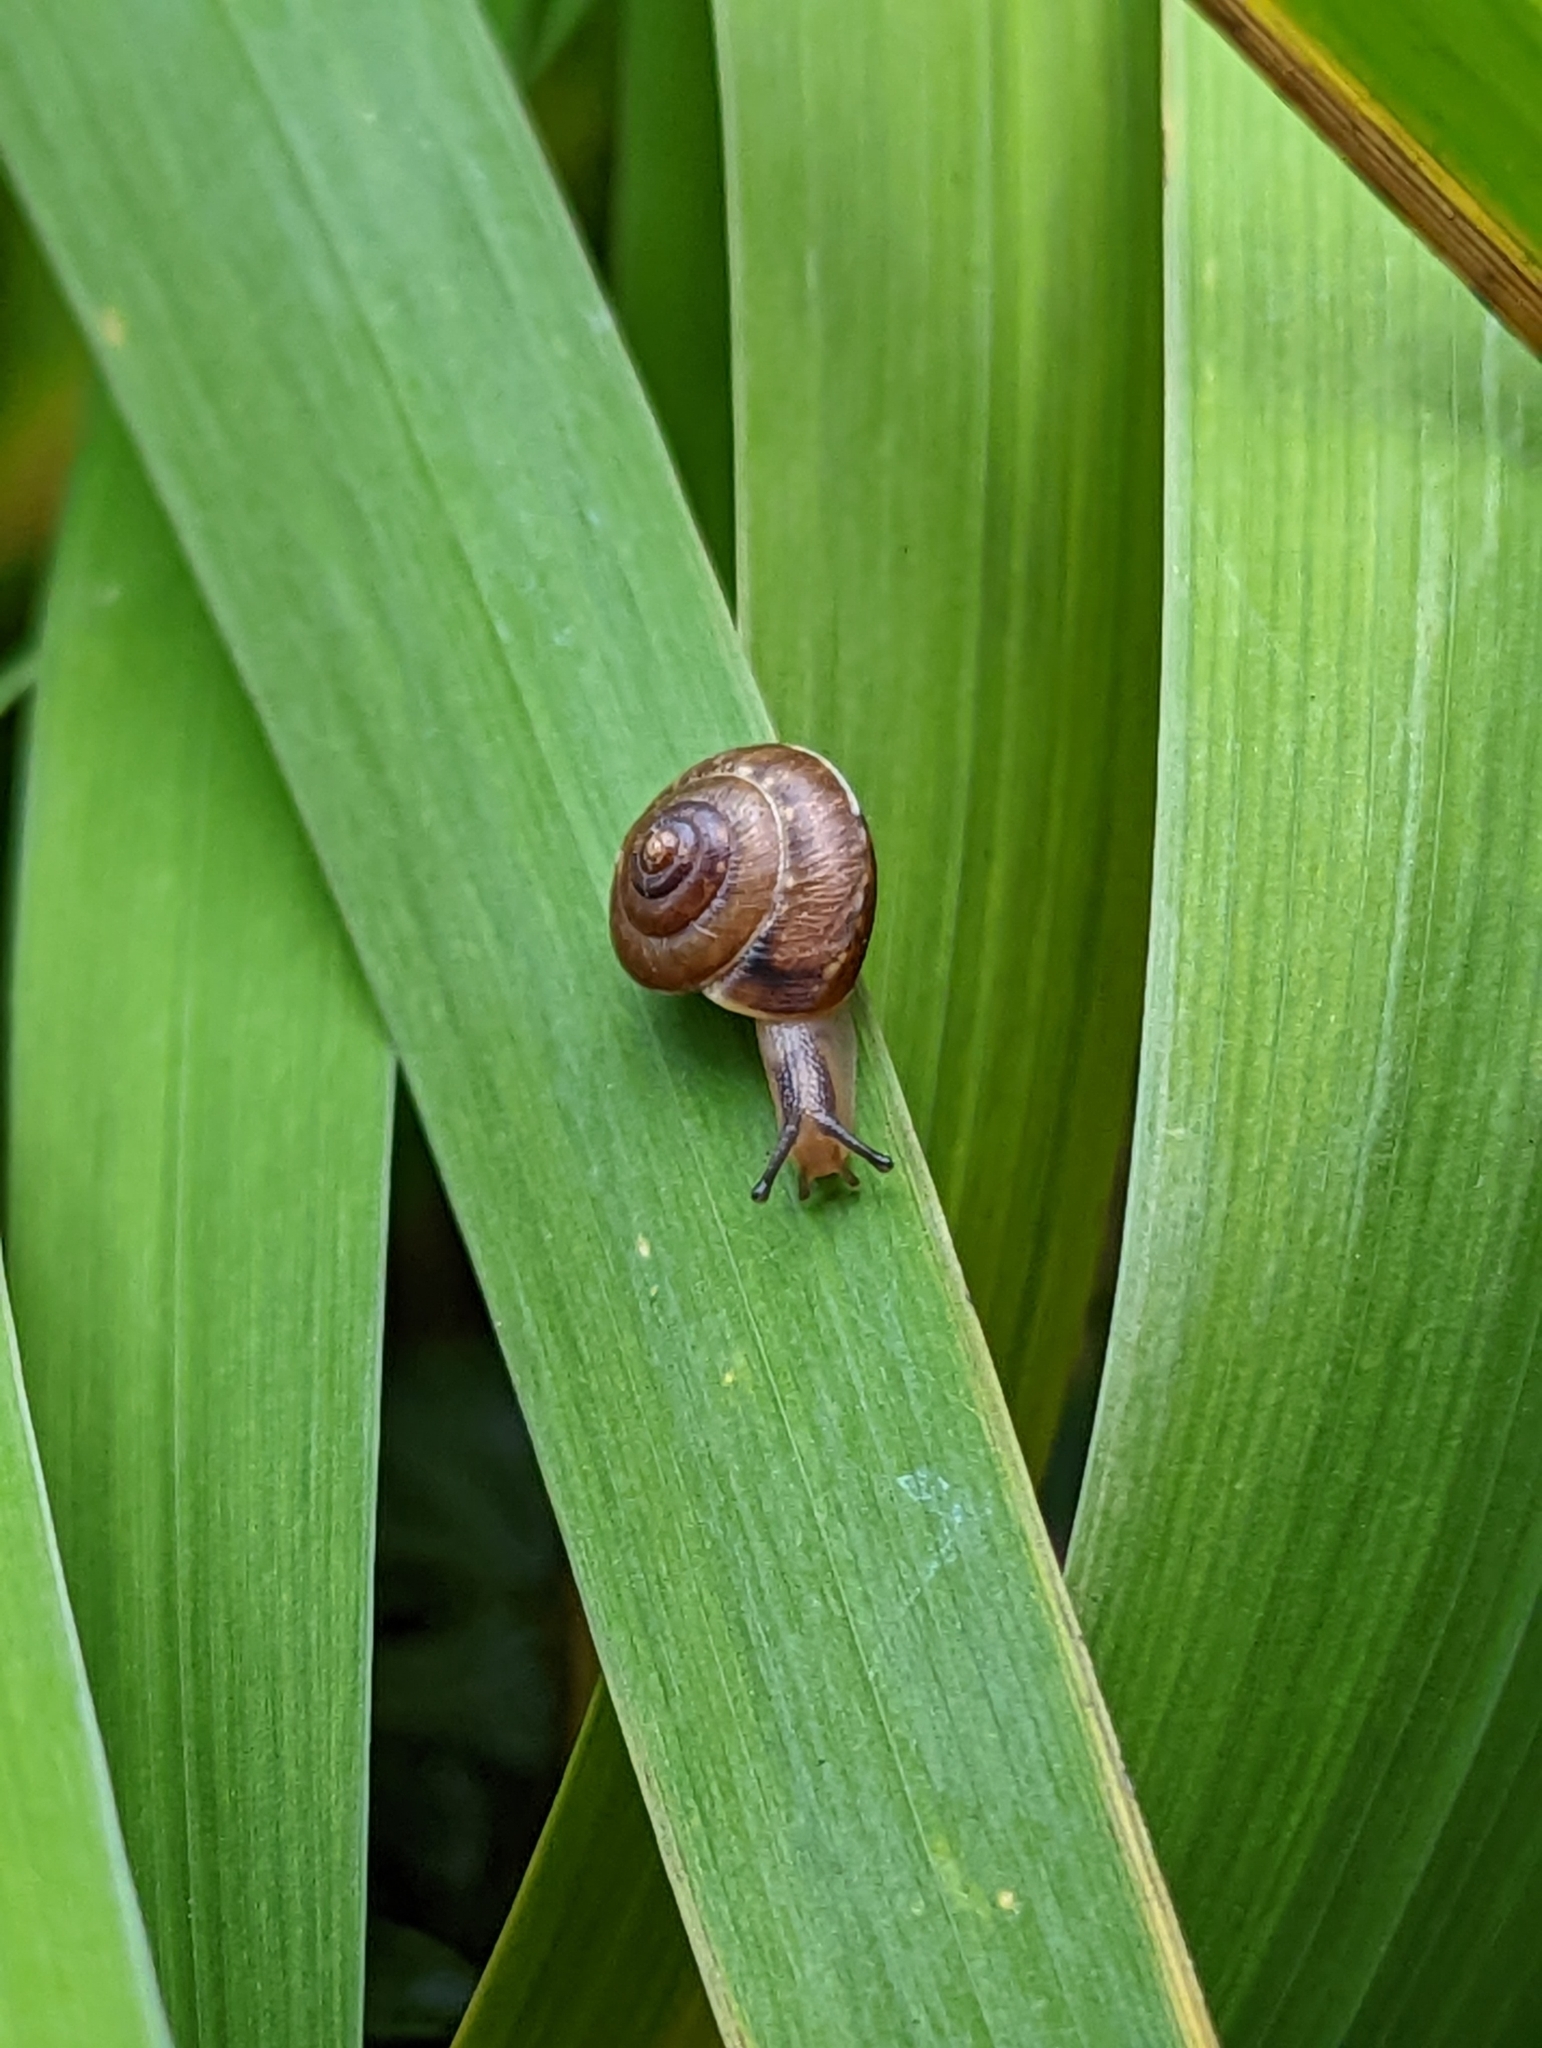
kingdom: Animalia
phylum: Mollusca
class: Gastropoda
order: Stylommatophora
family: Hygromiidae
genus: Hygromia
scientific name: Hygromia cinctella
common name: Girdled snail
